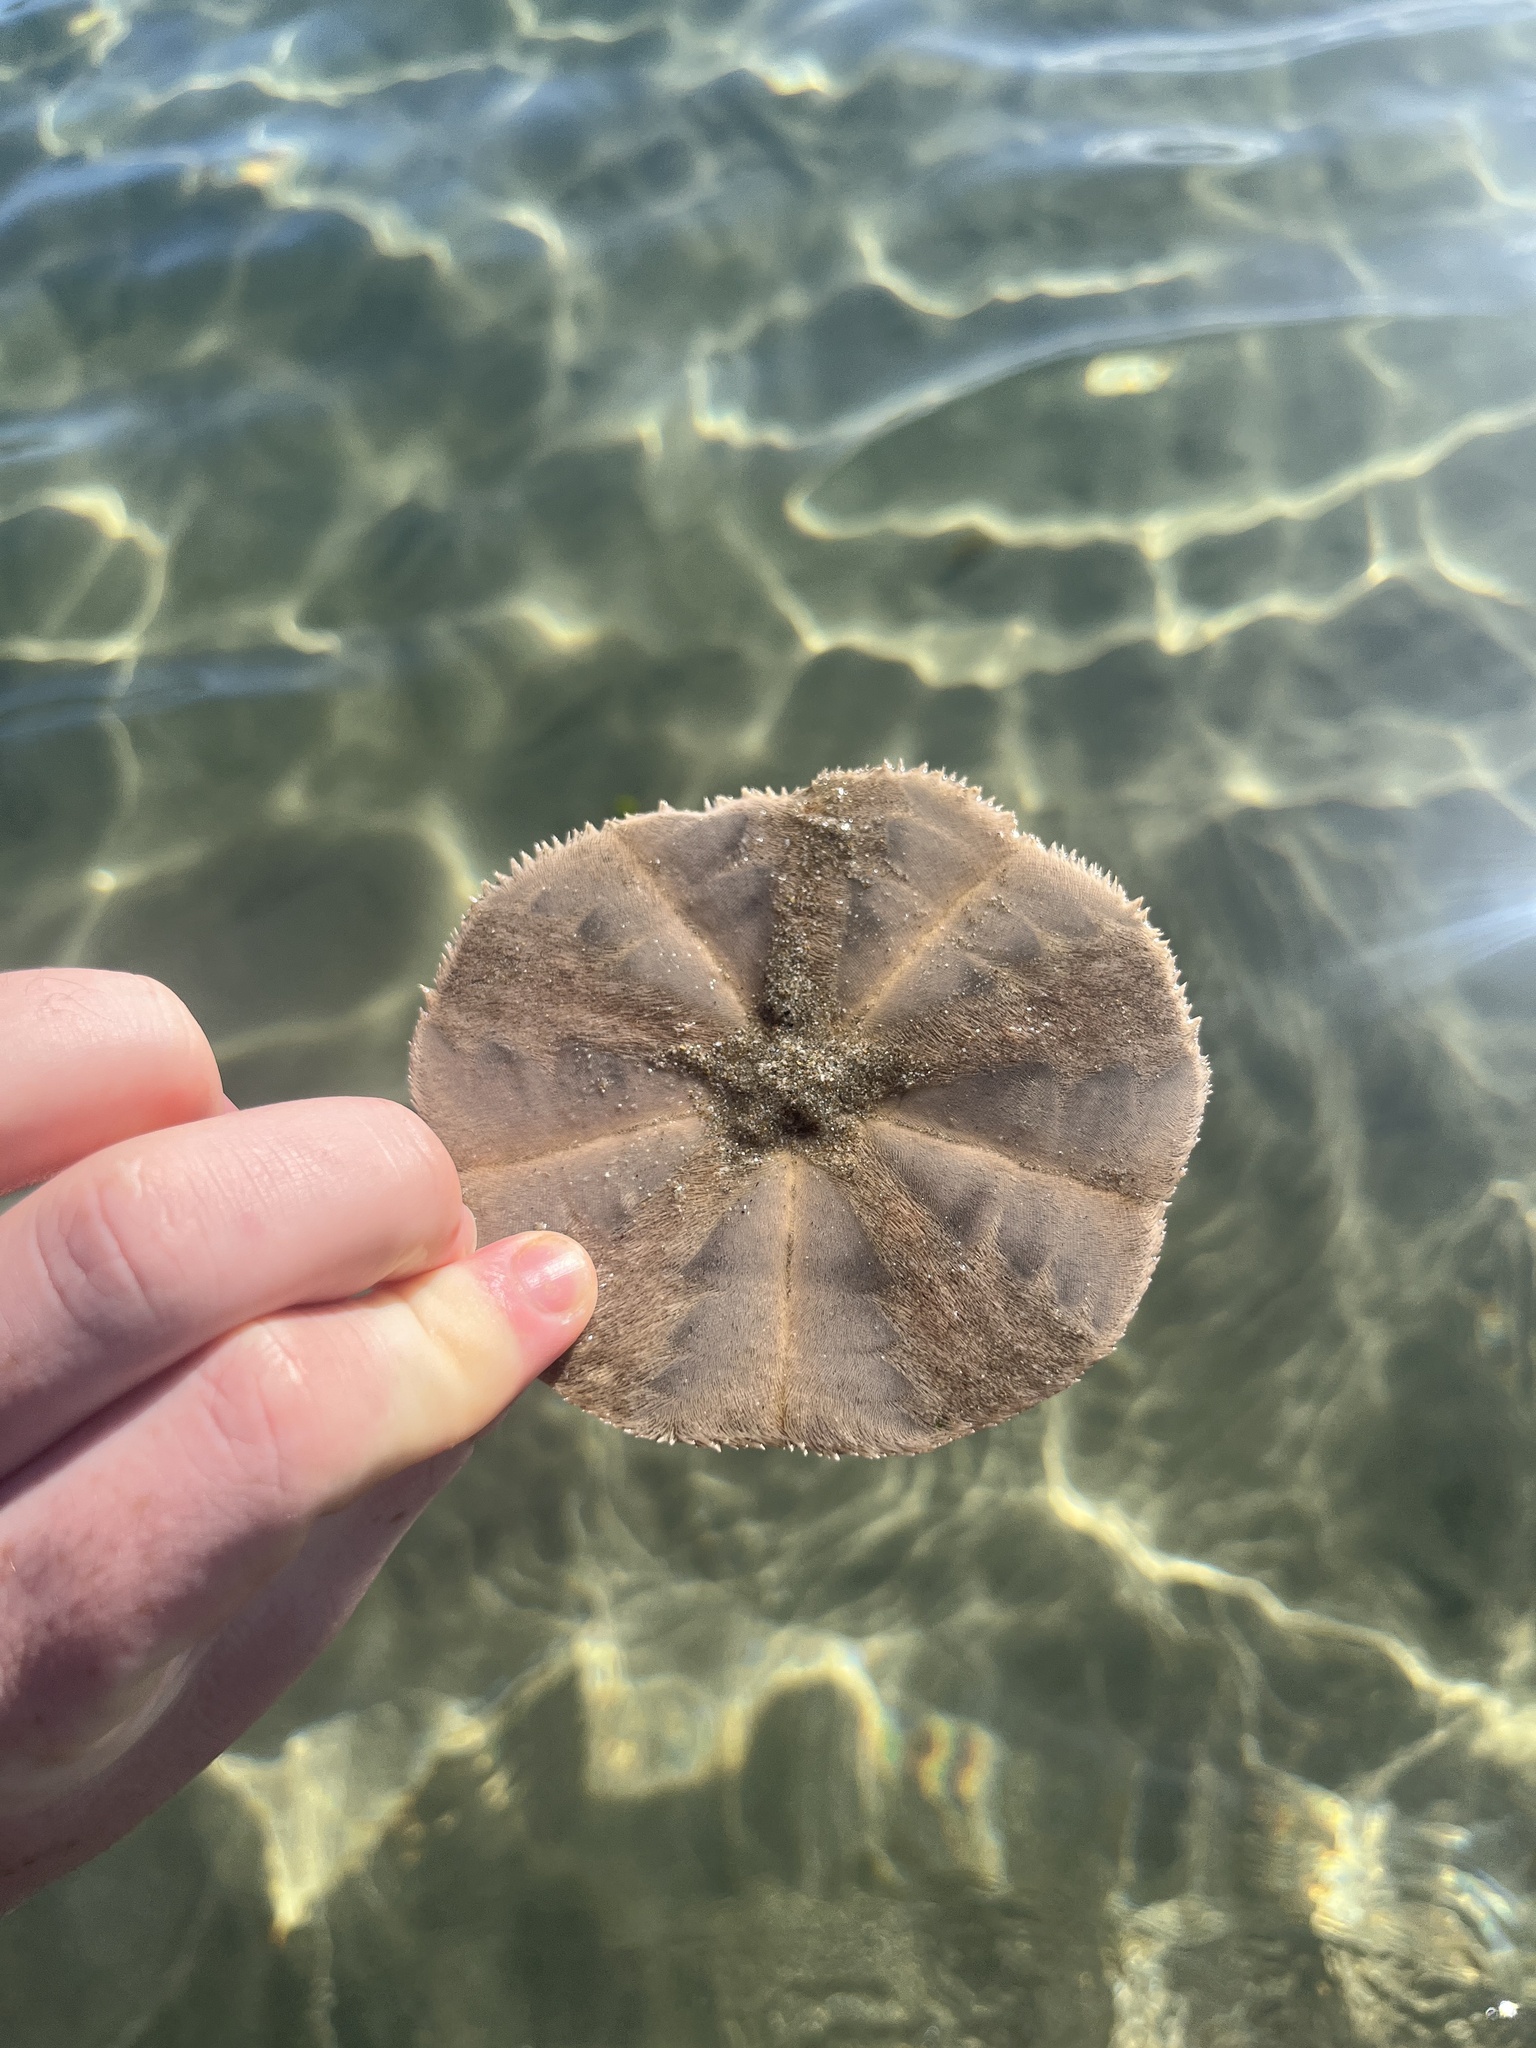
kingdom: Animalia
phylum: Echinodermata
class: Echinoidea
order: Clypeasteroida
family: Clypeasteridae
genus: Fellaster
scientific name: Fellaster zelandiae
